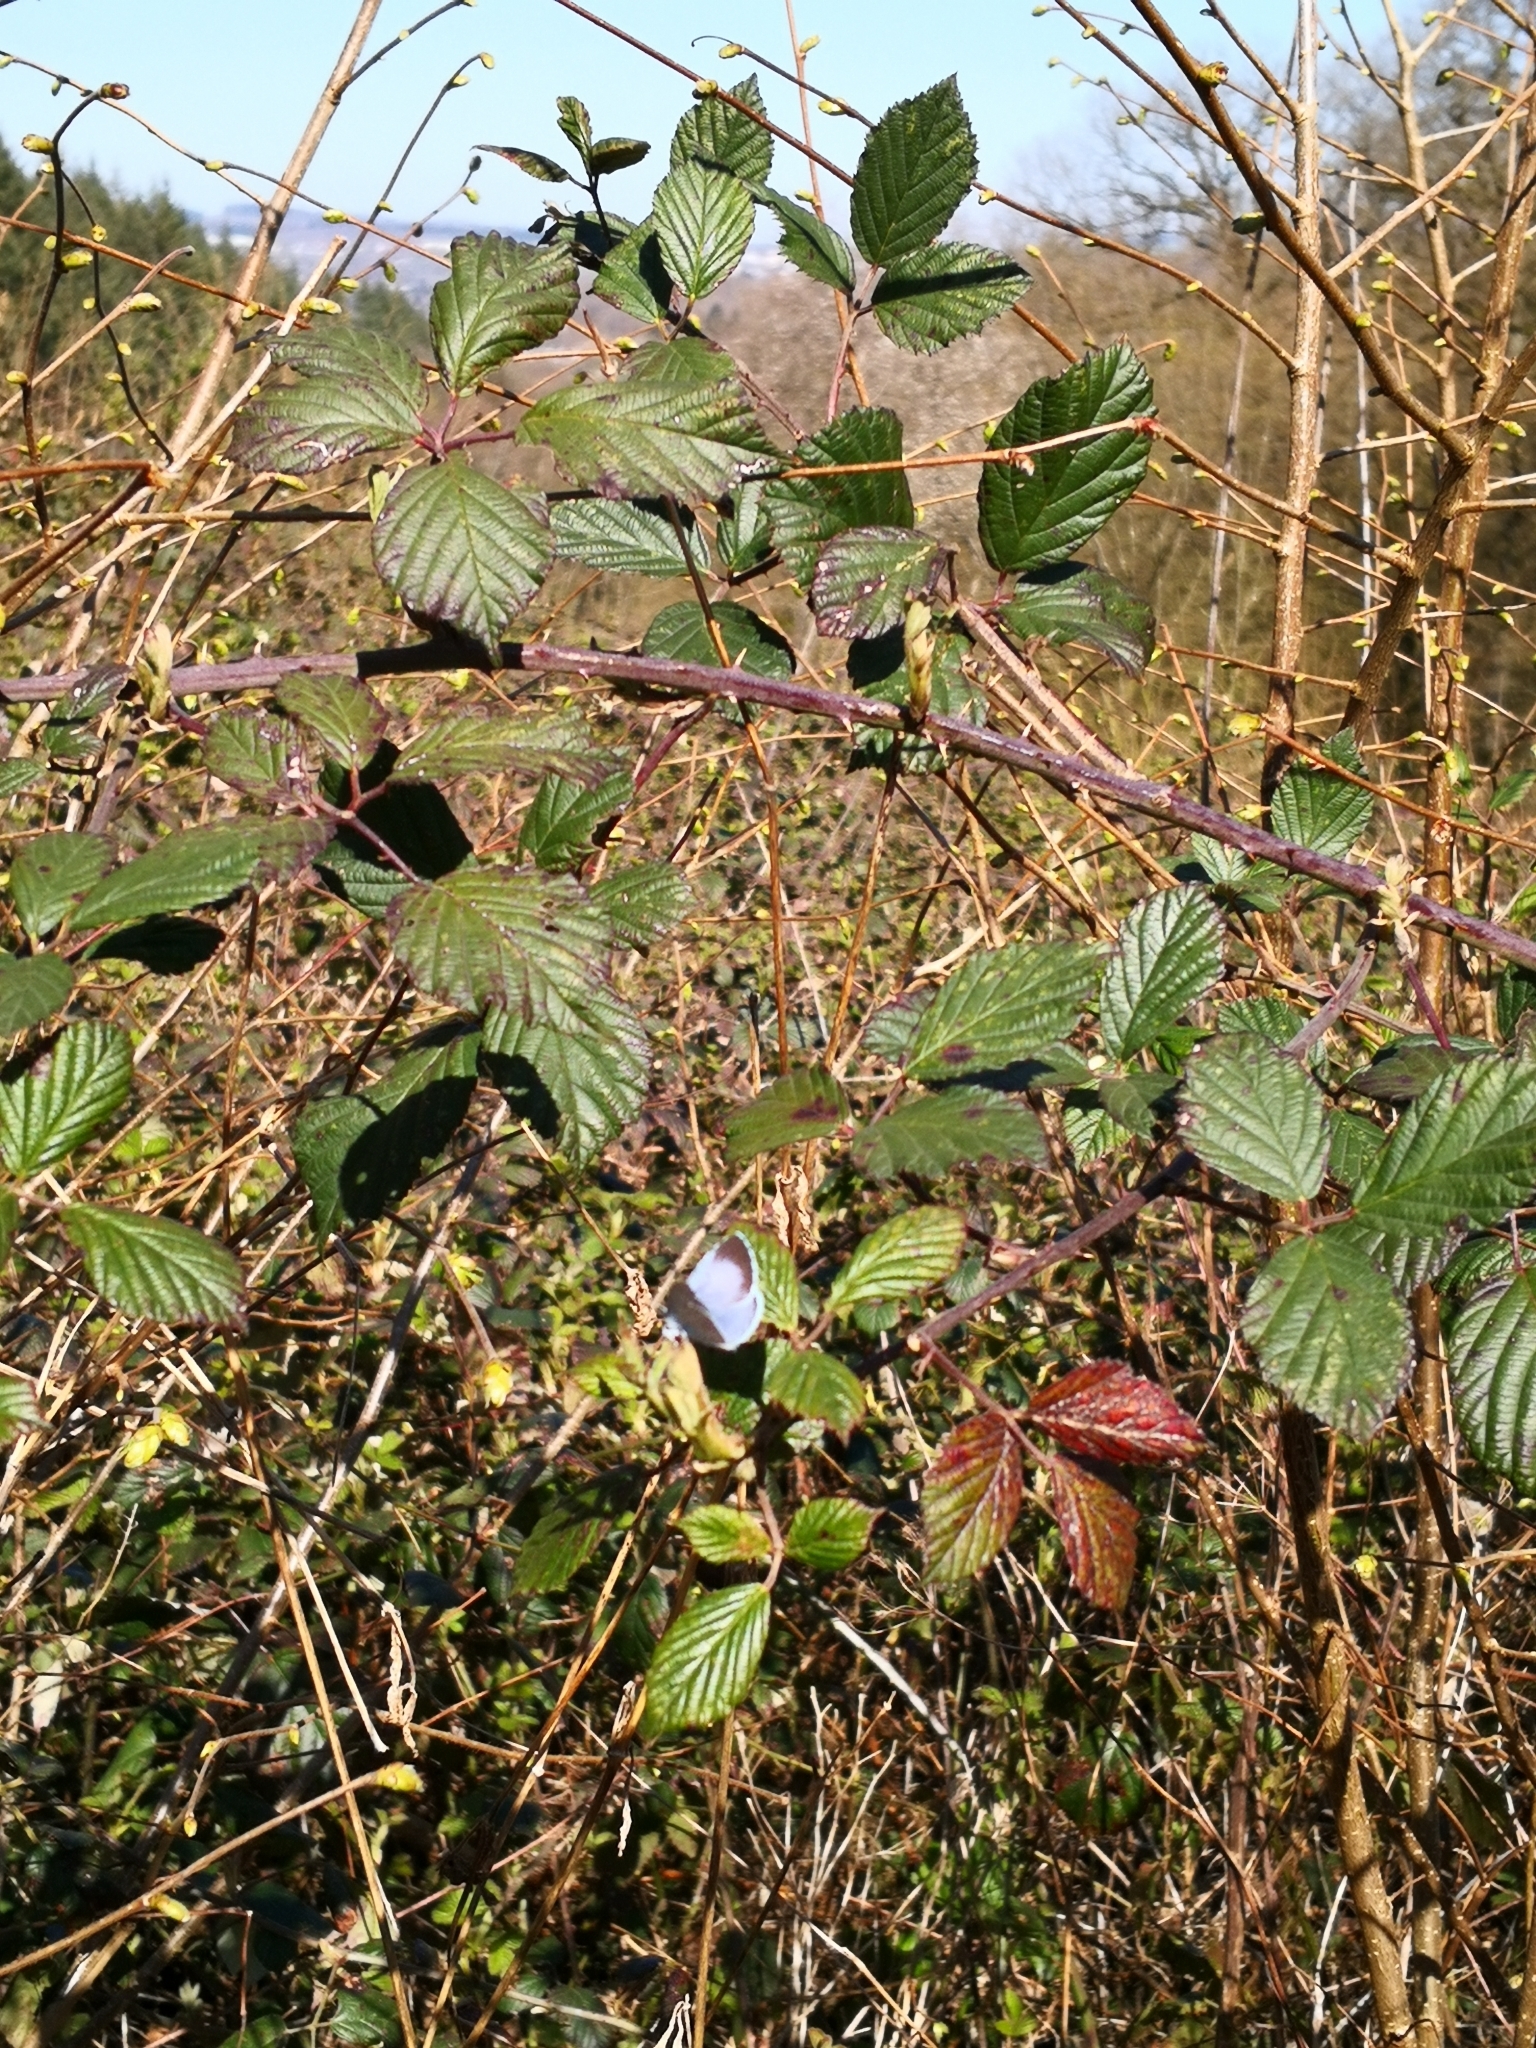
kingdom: Animalia
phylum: Arthropoda
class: Insecta
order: Lepidoptera
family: Lycaenidae
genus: Celastrina
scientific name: Celastrina argiolus
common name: Holly blue
